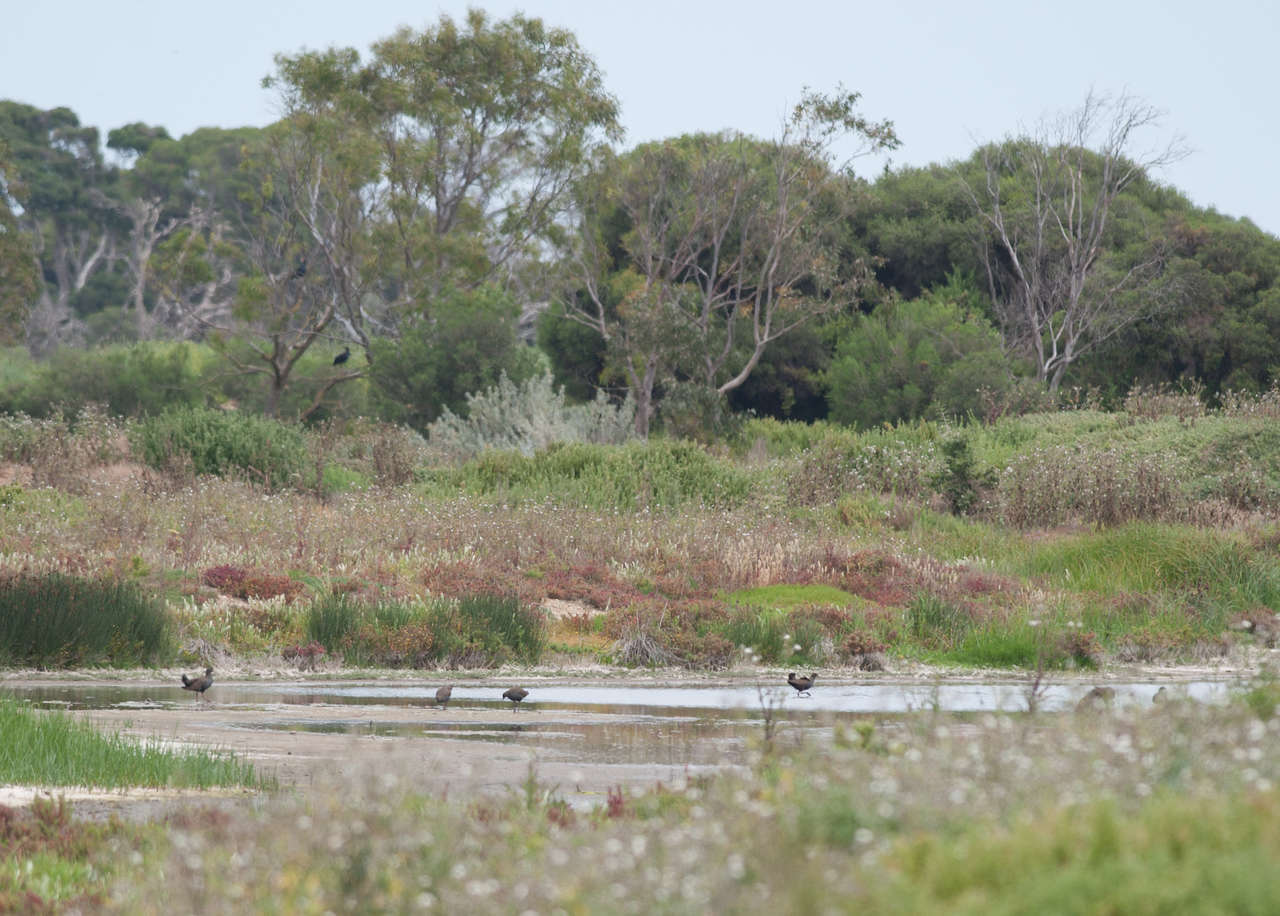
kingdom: Animalia
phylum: Chordata
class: Aves
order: Gruiformes
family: Rallidae
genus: Gallinula
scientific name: Gallinula ventralis
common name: Black-tailed nativehen
